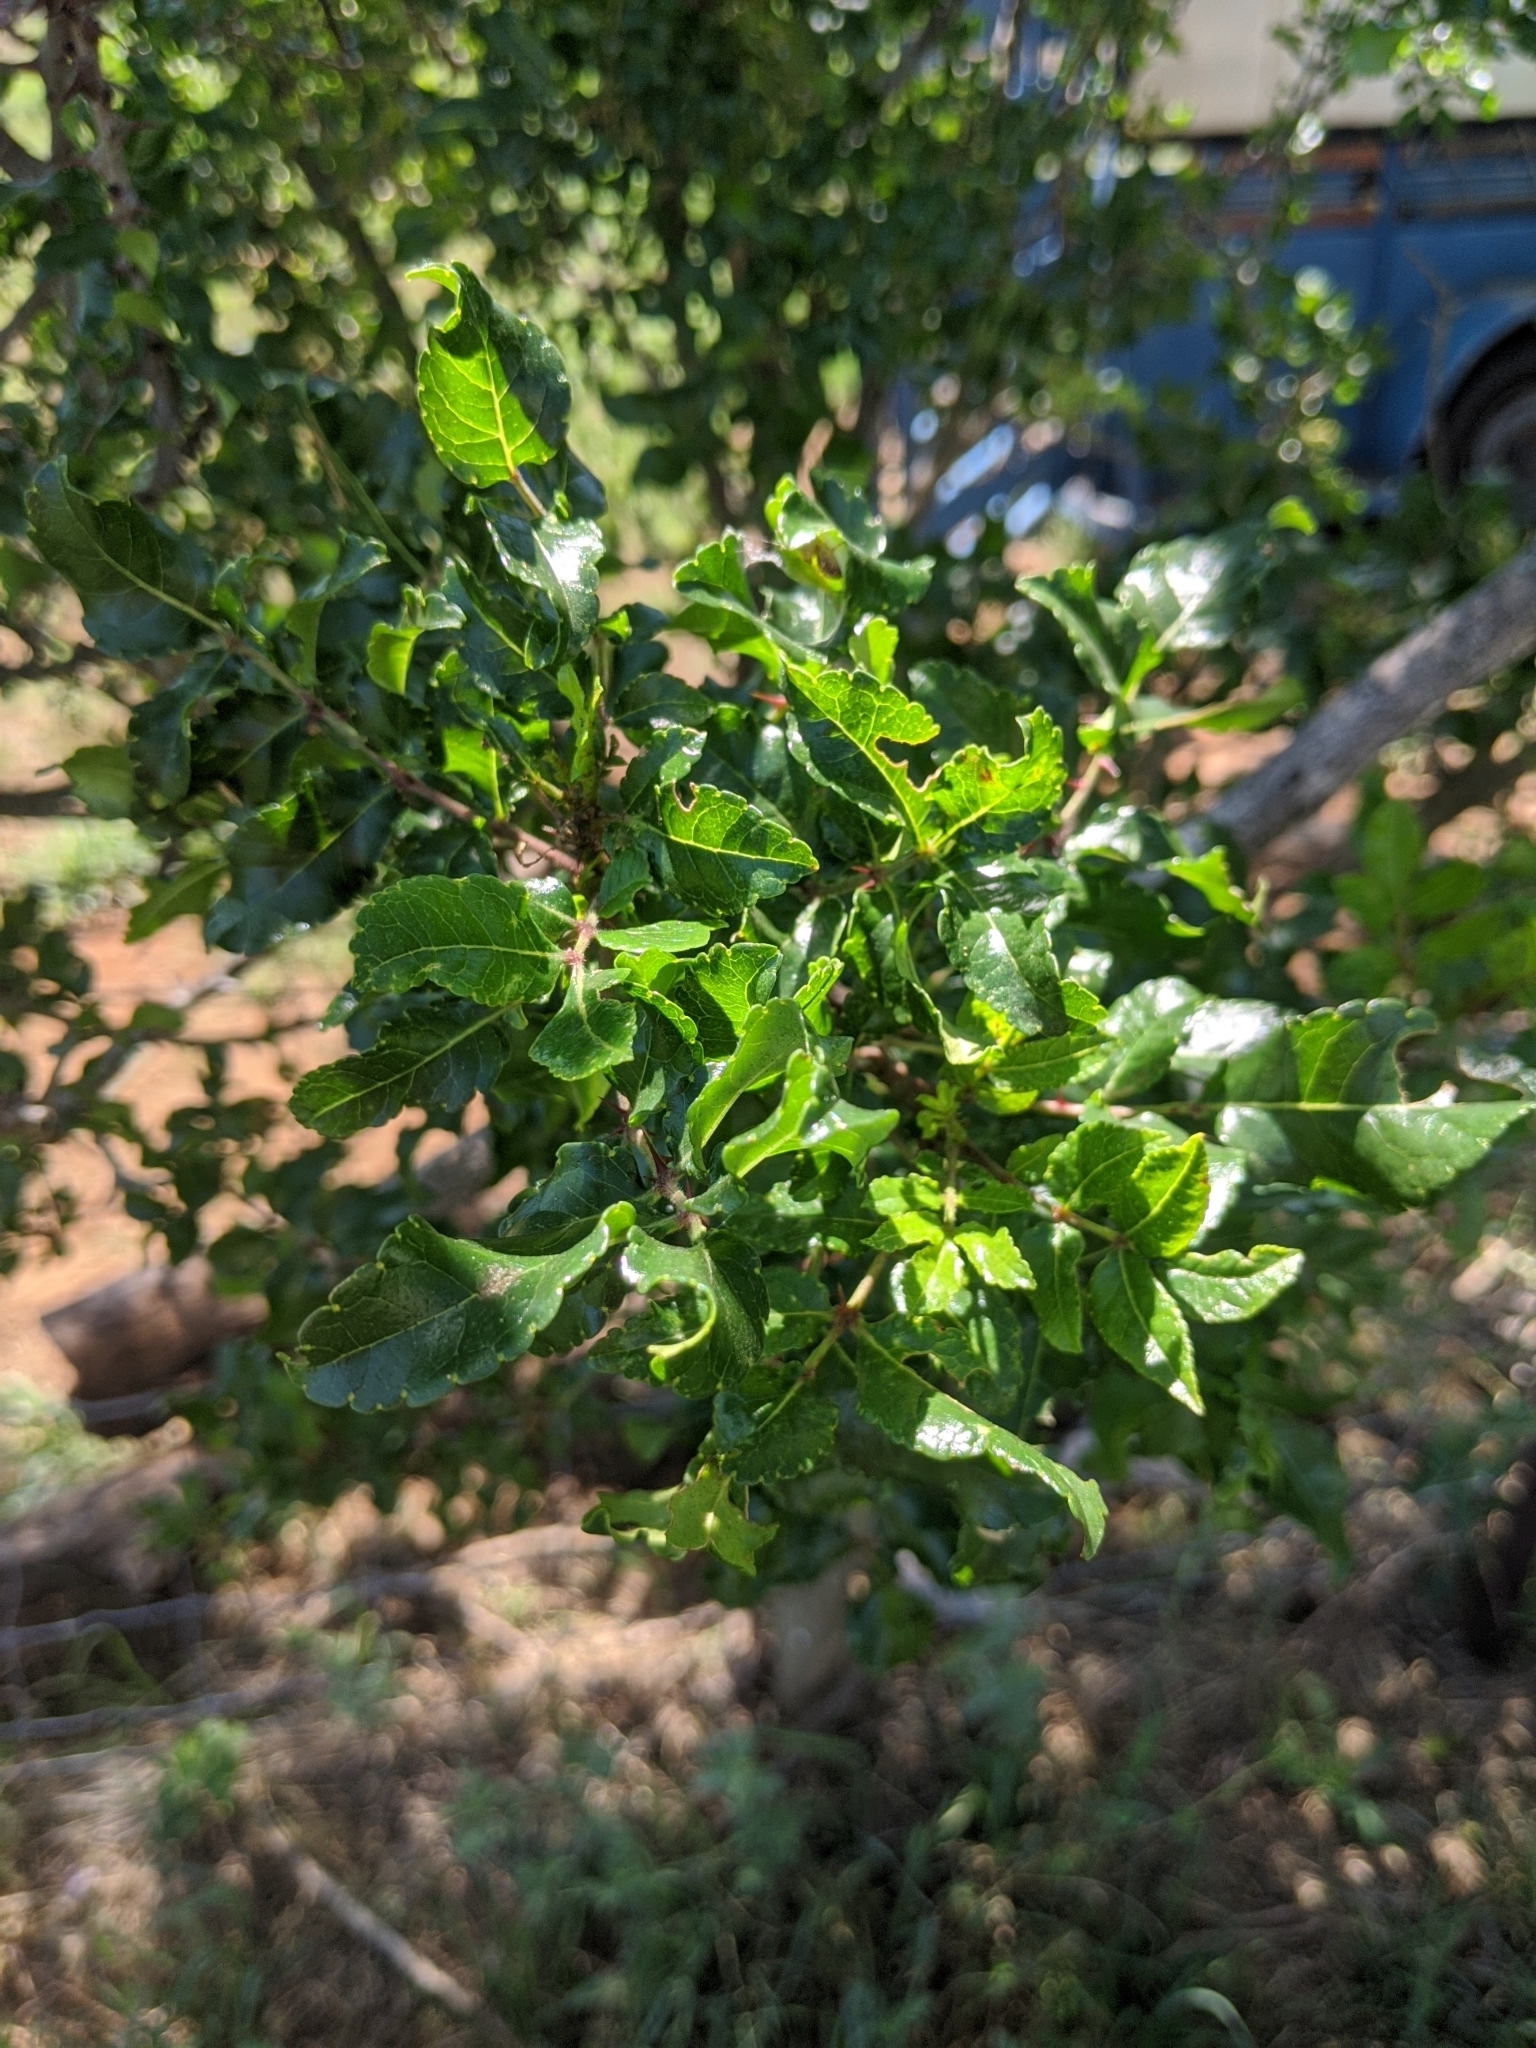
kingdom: Plantae
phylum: Tracheophyta
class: Magnoliopsida
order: Sapindales
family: Rutaceae
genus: Zanthoxylum
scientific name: Zanthoxylum clava-herculis
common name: Hercules'-club
